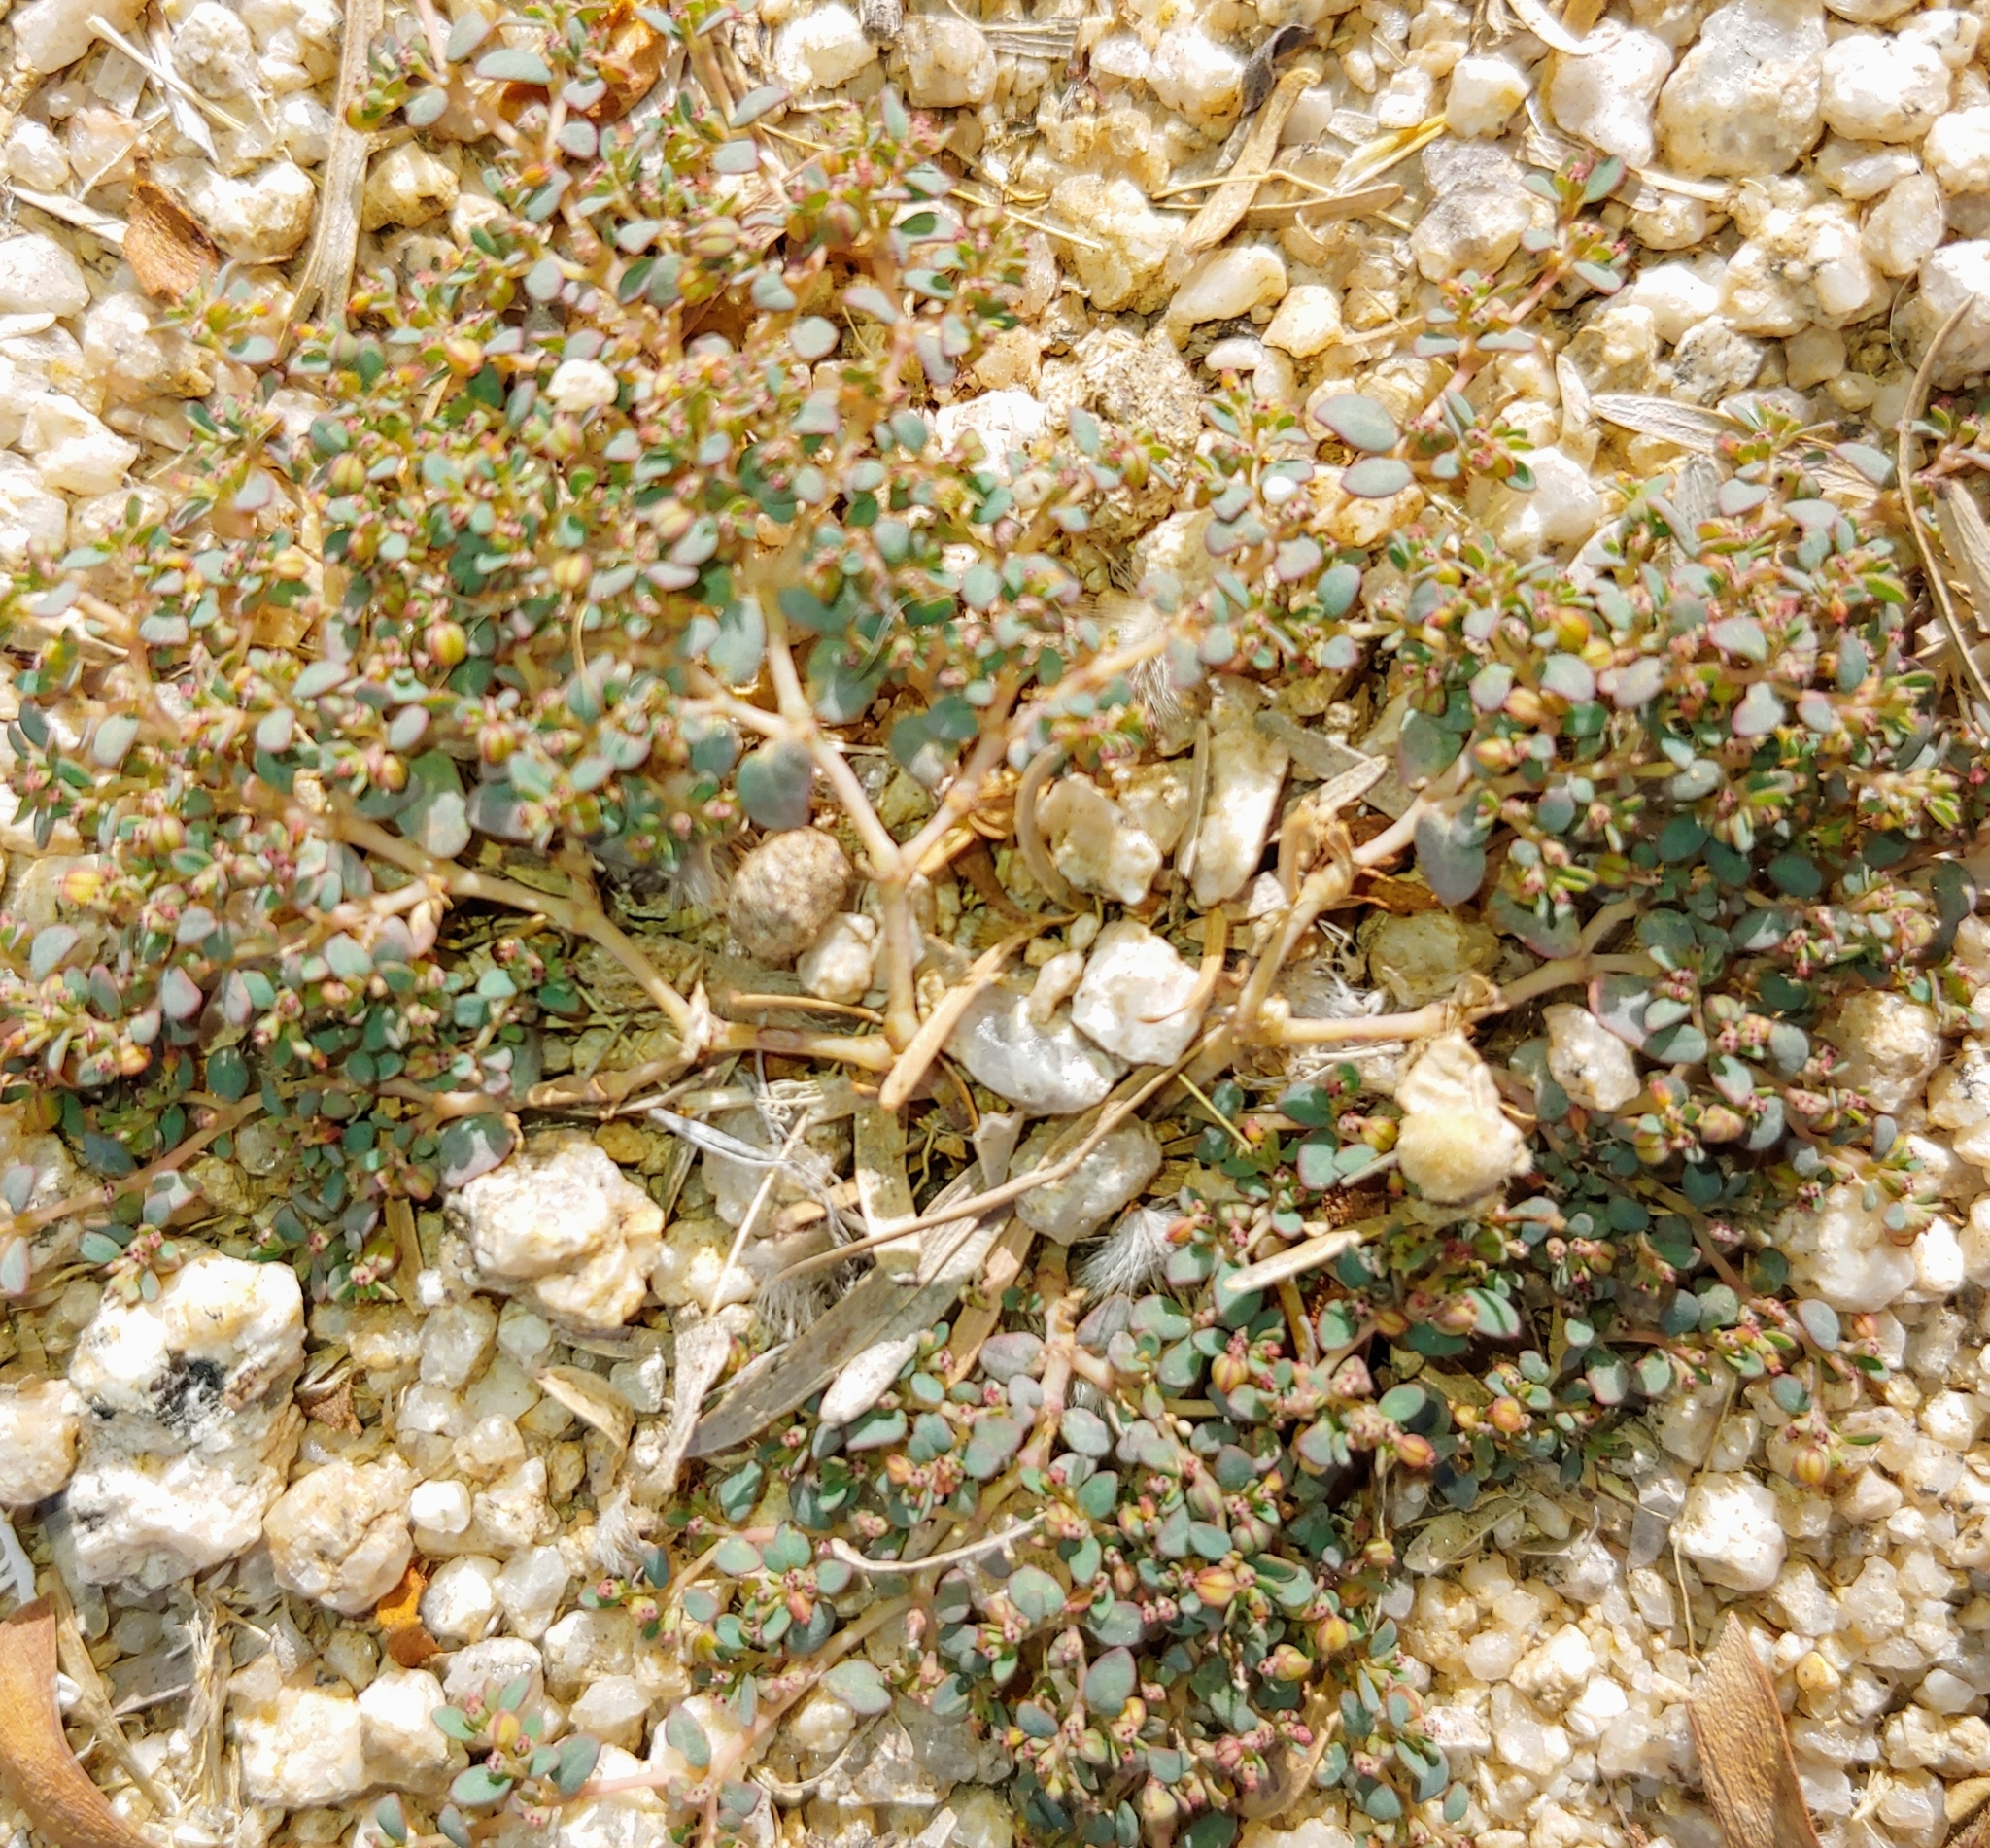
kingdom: Plantae
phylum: Tracheophyta
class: Magnoliopsida
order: Malpighiales
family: Euphorbiaceae
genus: Euphorbia
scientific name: Euphorbia micromera
